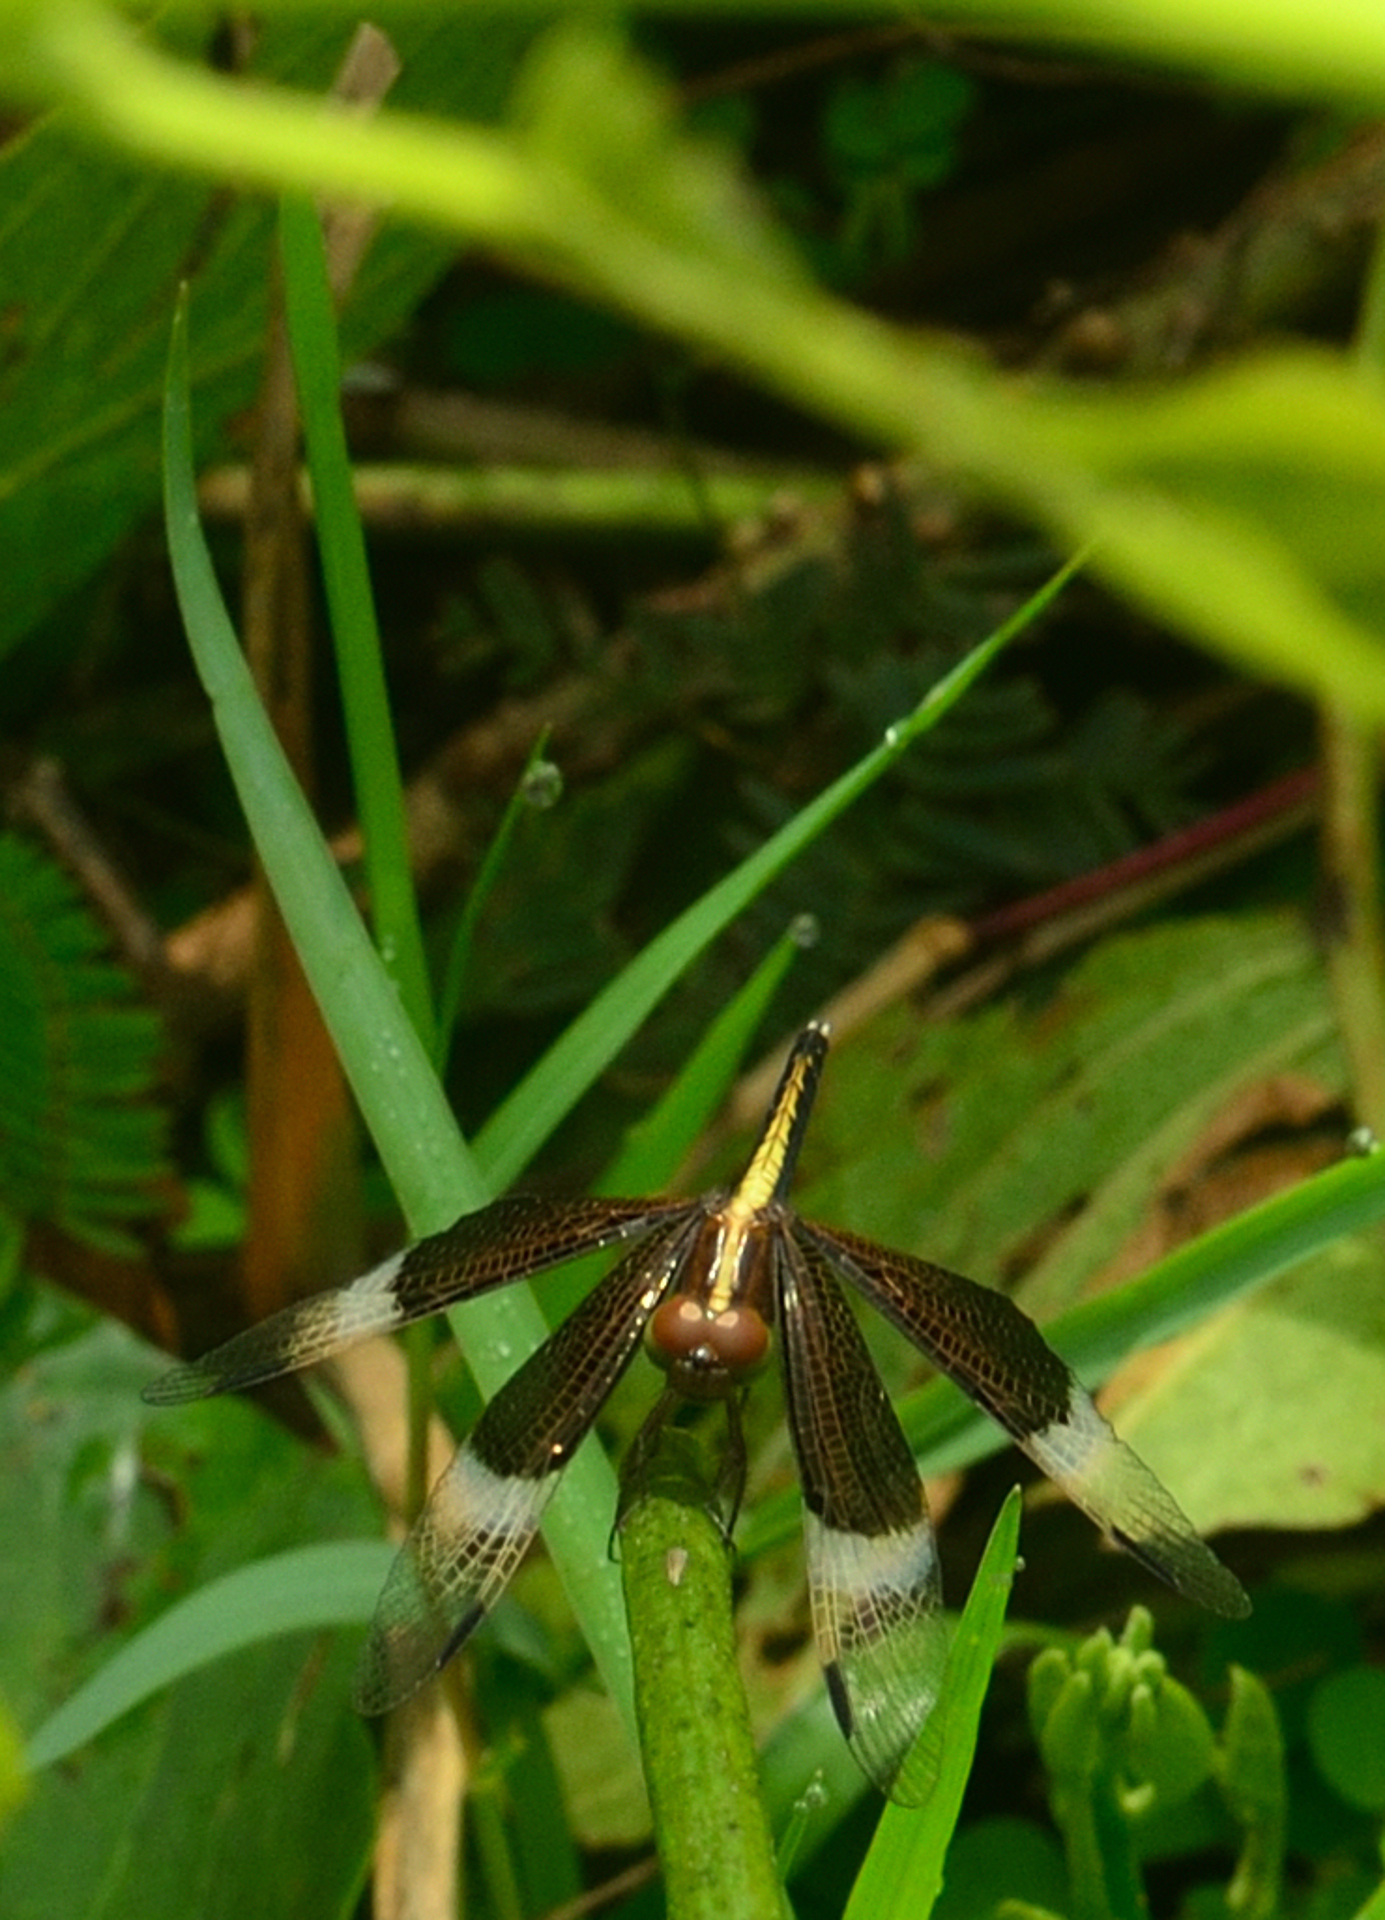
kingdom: Animalia
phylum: Arthropoda
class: Insecta
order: Odonata
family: Libellulidae
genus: Neurothemis
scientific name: Neurothemis tullia
